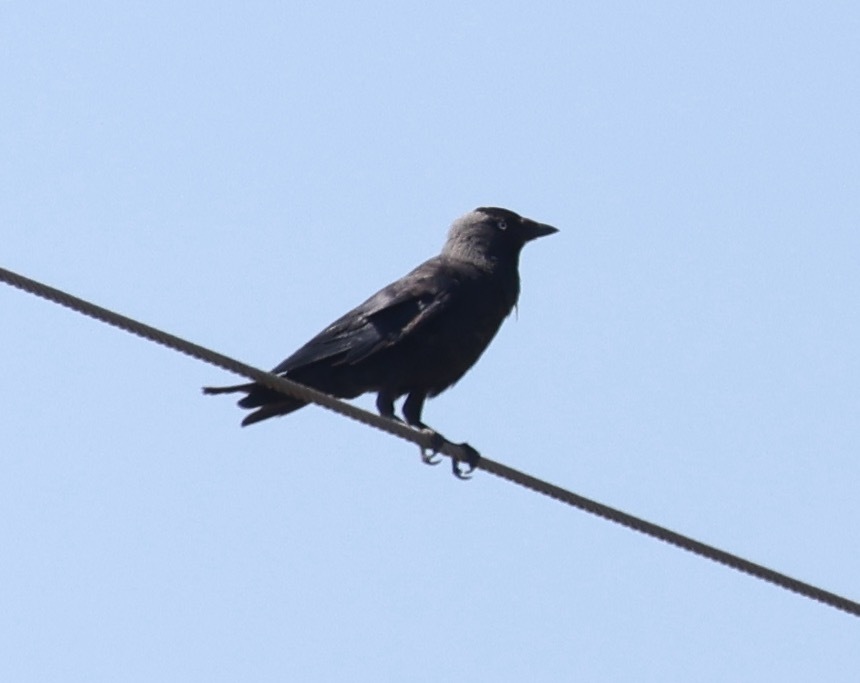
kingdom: Animalia
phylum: Chordata
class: Aves
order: Passeriformes
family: Corvidae
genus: Coloeus
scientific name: Coloeus monedula
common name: Western jackdaw
